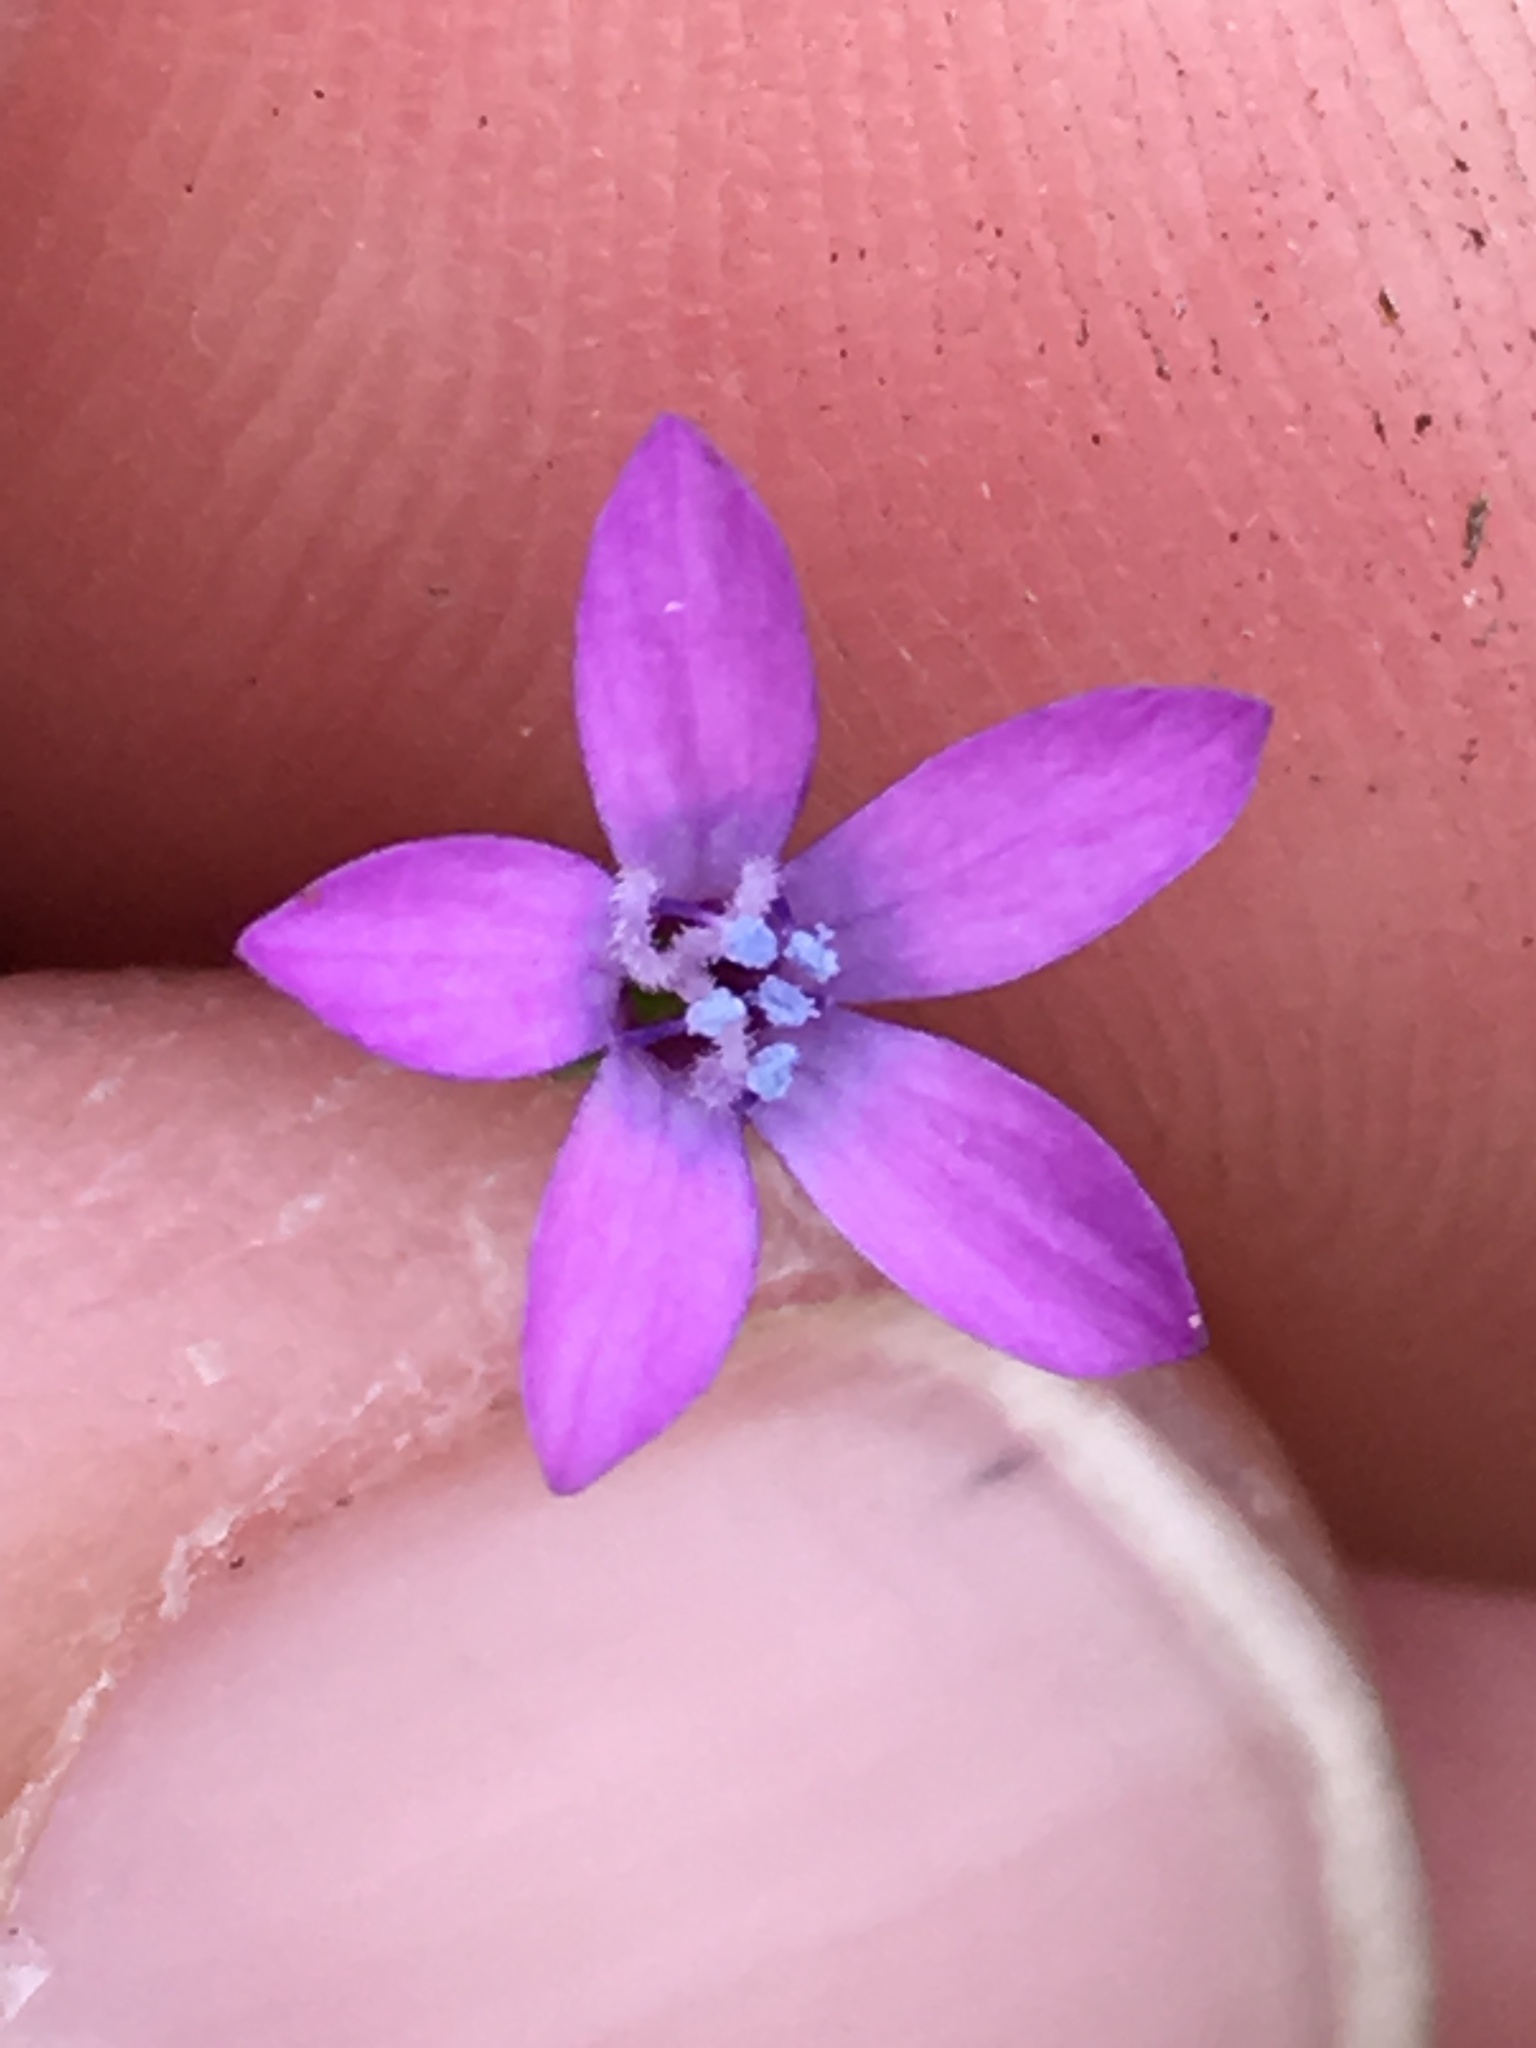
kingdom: Plantae
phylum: Tracheophyta
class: Magnoliopsida
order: Ericales
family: Polemoniaceae
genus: Gilia
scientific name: Gilia nevinii
